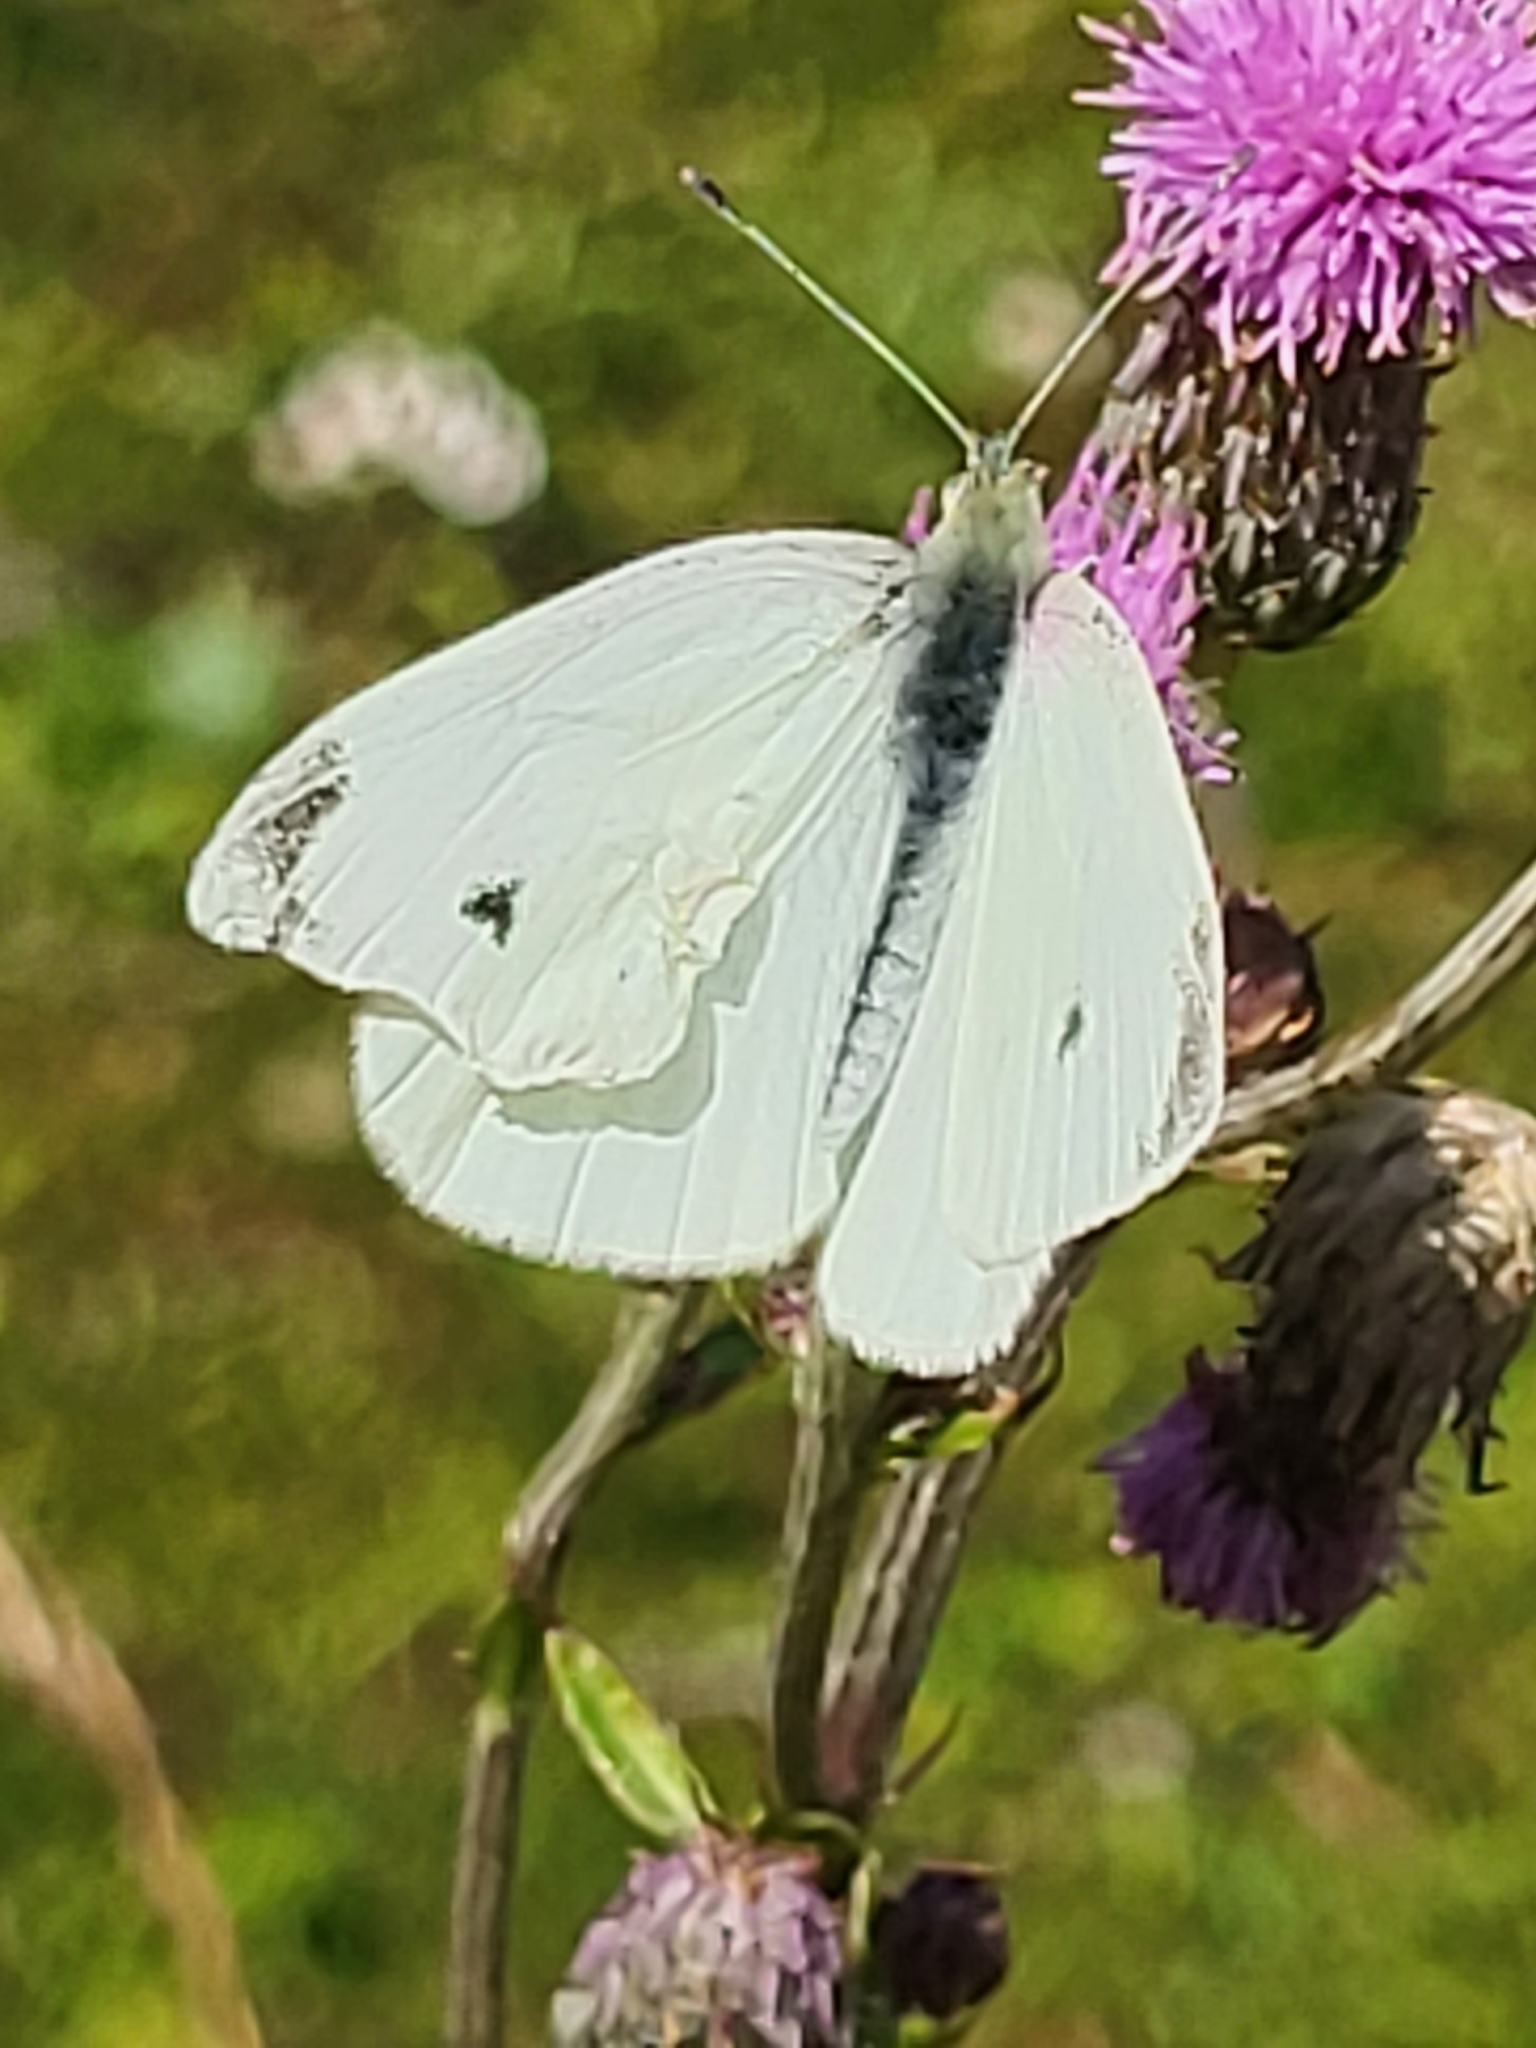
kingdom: Animalia
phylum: Arthropoda
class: Insecta
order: Lepidoptera
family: Pieridae
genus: Pieris
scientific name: Pieris rapae
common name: Small white
